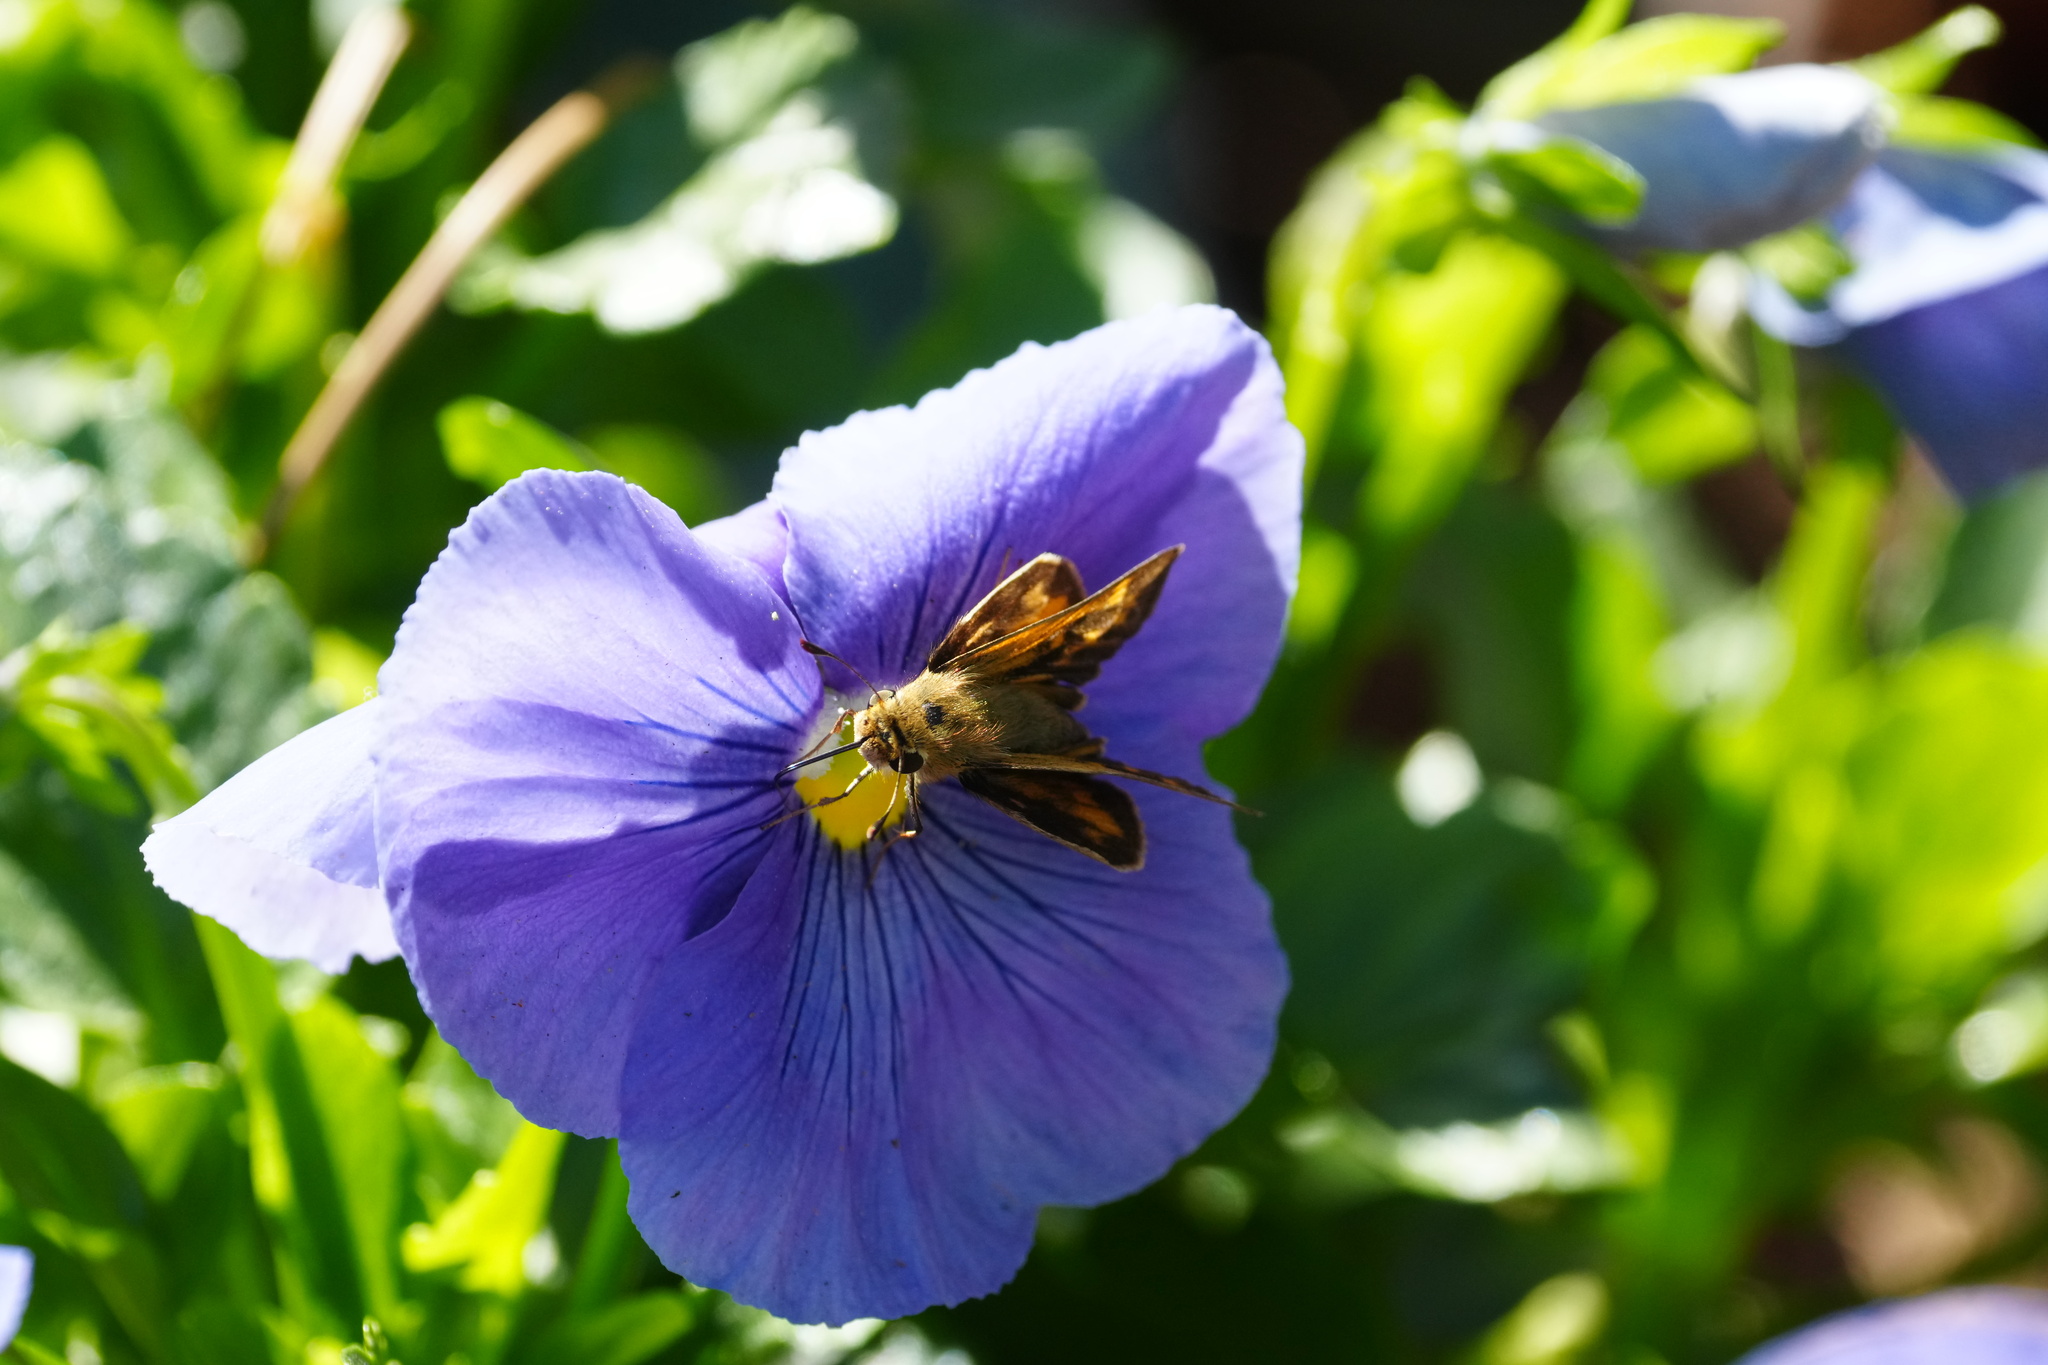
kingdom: Animalia
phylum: Arthropoda
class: Insecta
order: Lepidoptera
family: Hesperiidae
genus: Hylephila
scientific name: Hylephila phyleus
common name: Fiery skipper
